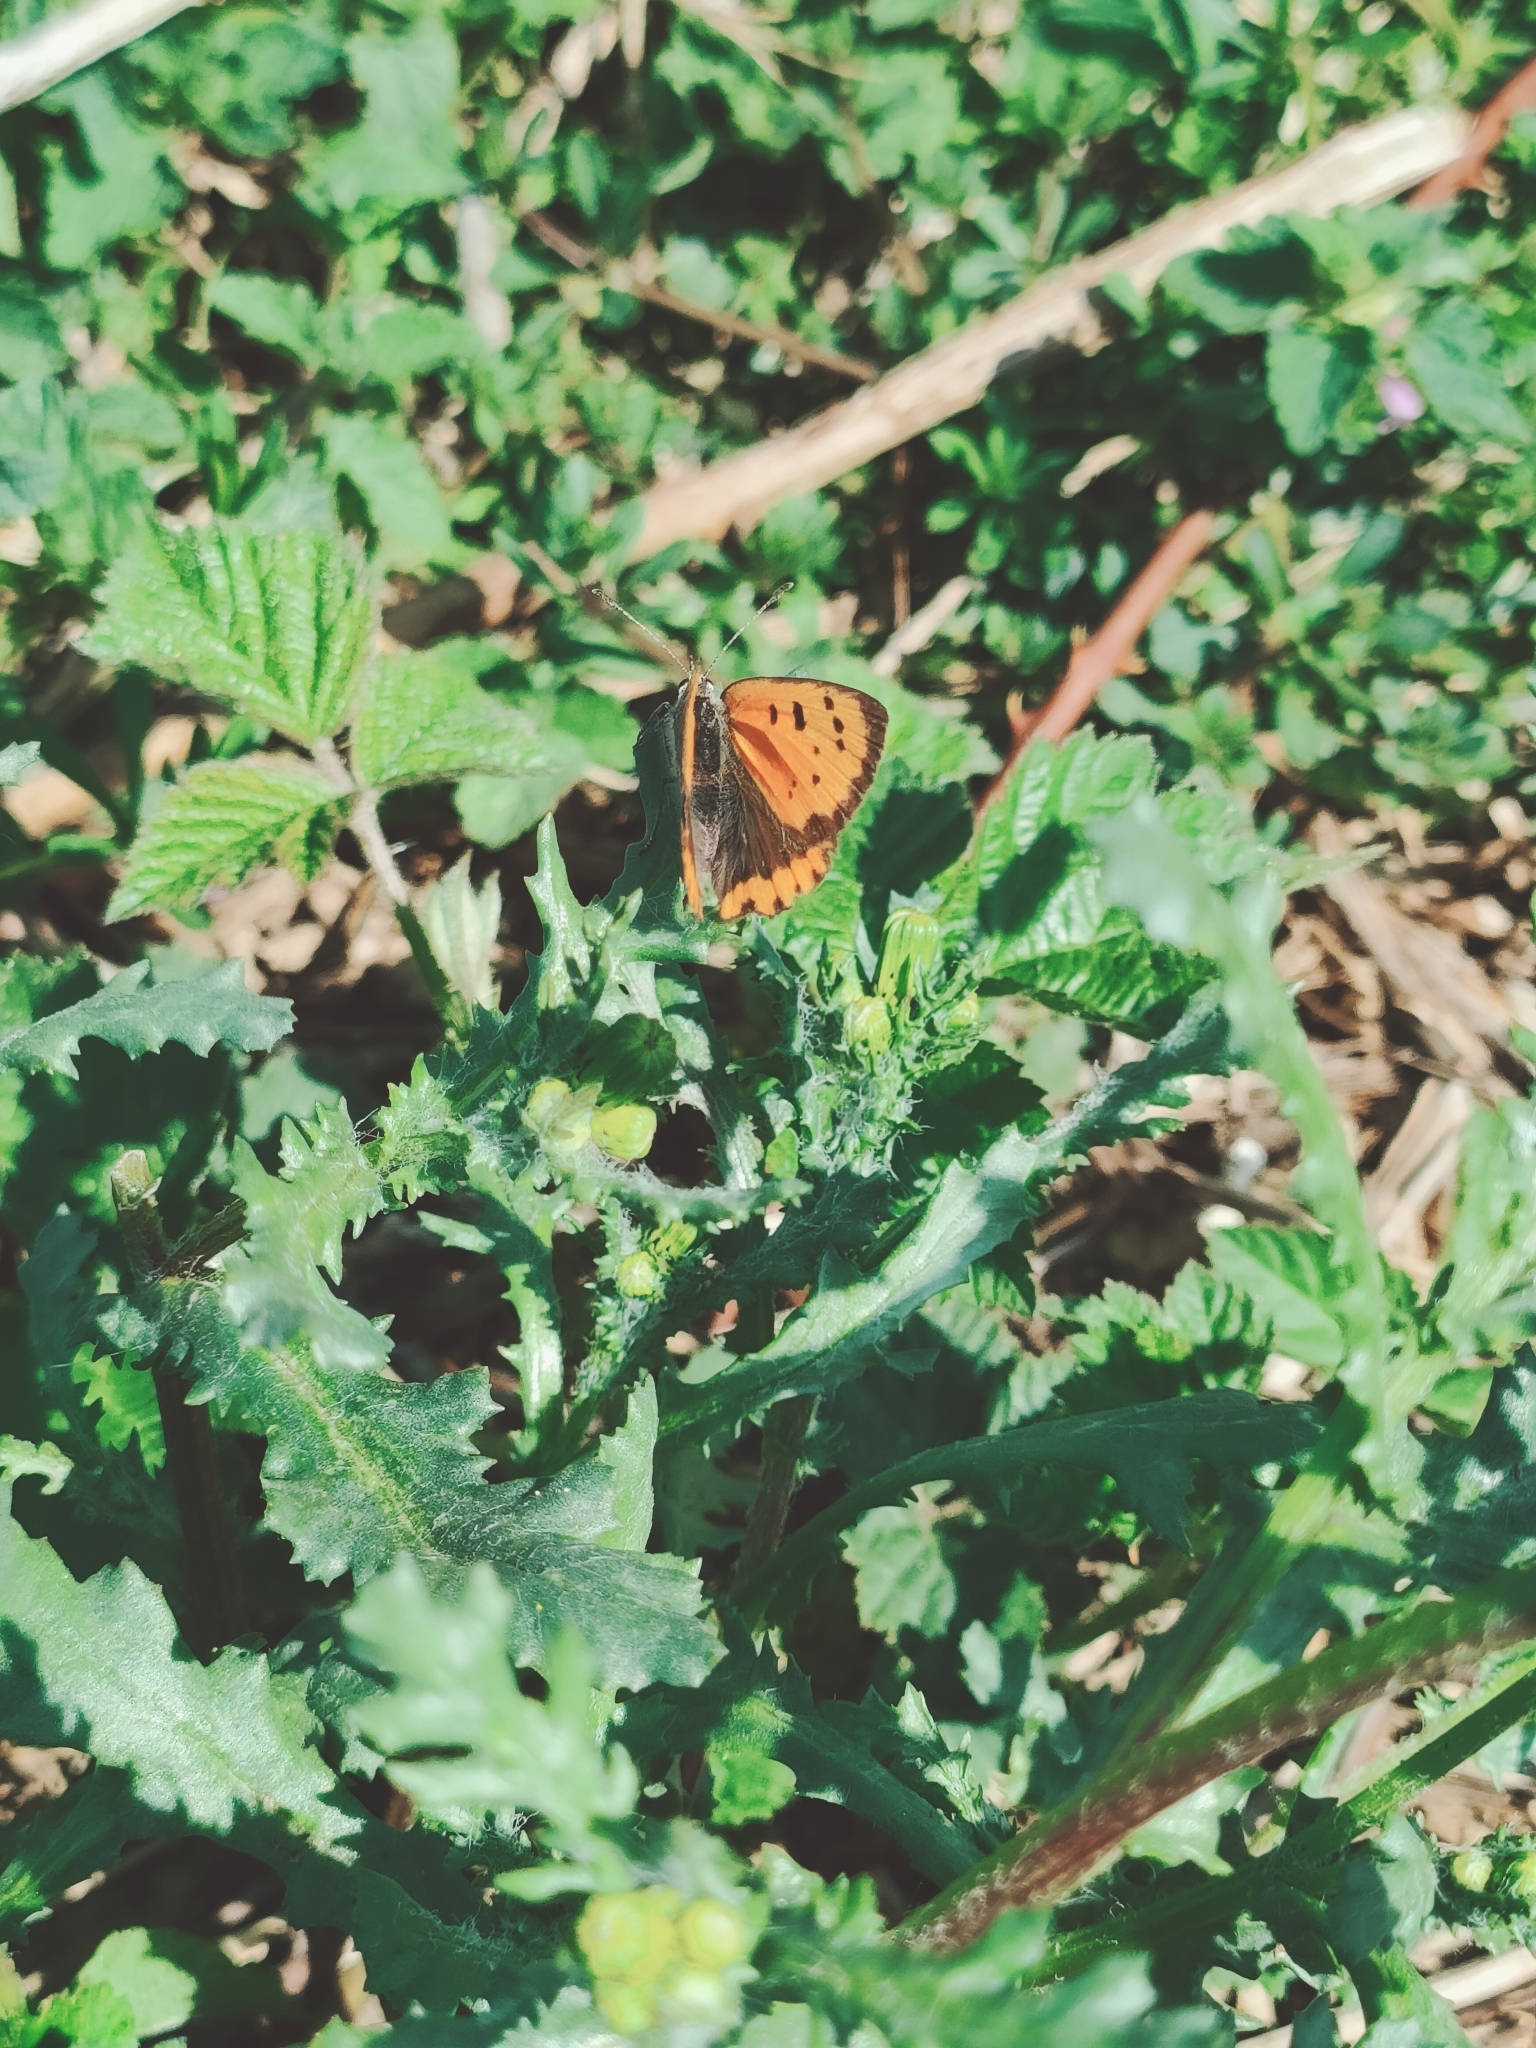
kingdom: Animalia
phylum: Arthropoda
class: Insecta
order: Lepidoptera
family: Lycaenidae
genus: Lycaena
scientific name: Lycaena phlaeas
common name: Small copper
